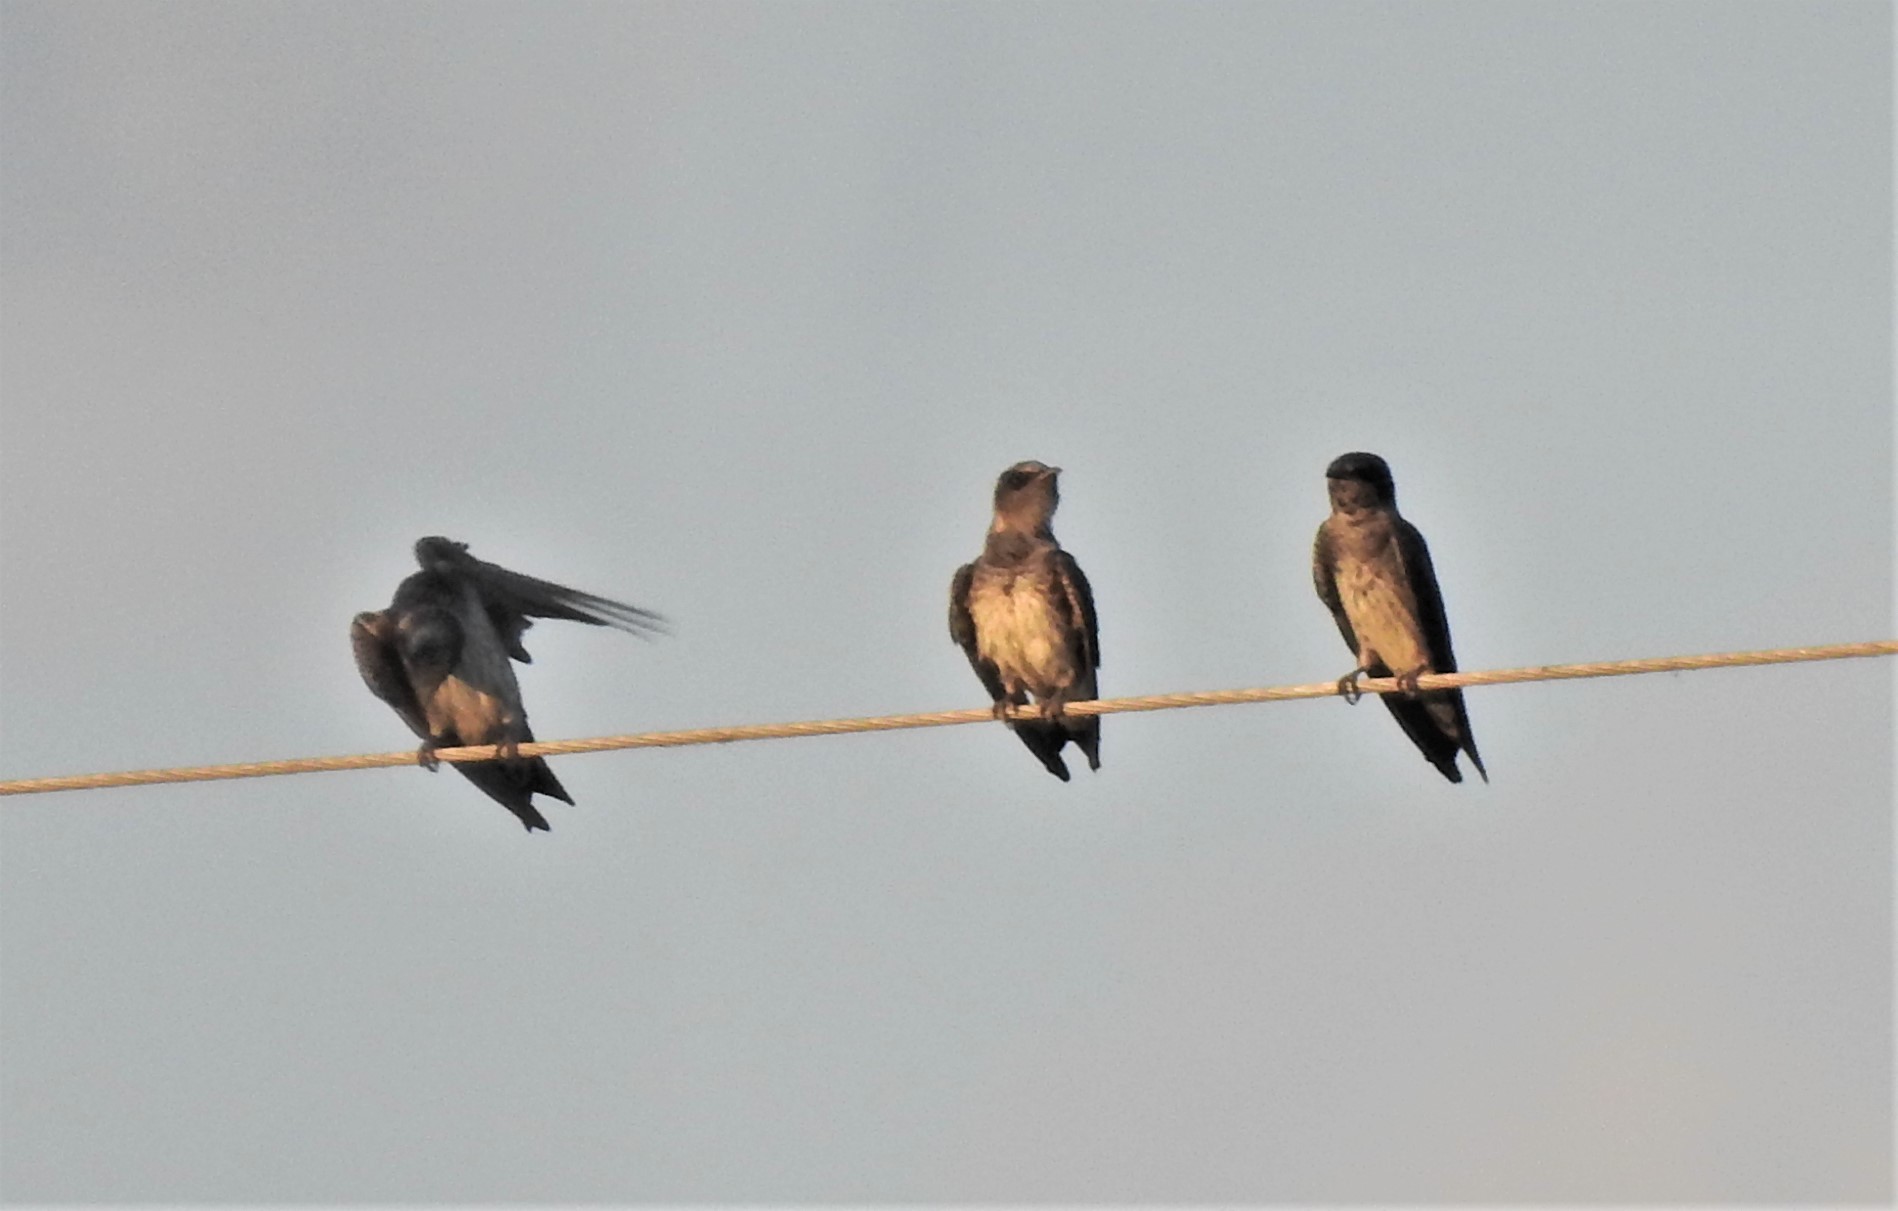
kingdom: Animalia
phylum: Chordata
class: Aves
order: Passeriformes
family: Hirundinidae
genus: Petrochelidon
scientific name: Petrochelidon pyrrhonota
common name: American cliff swallow
